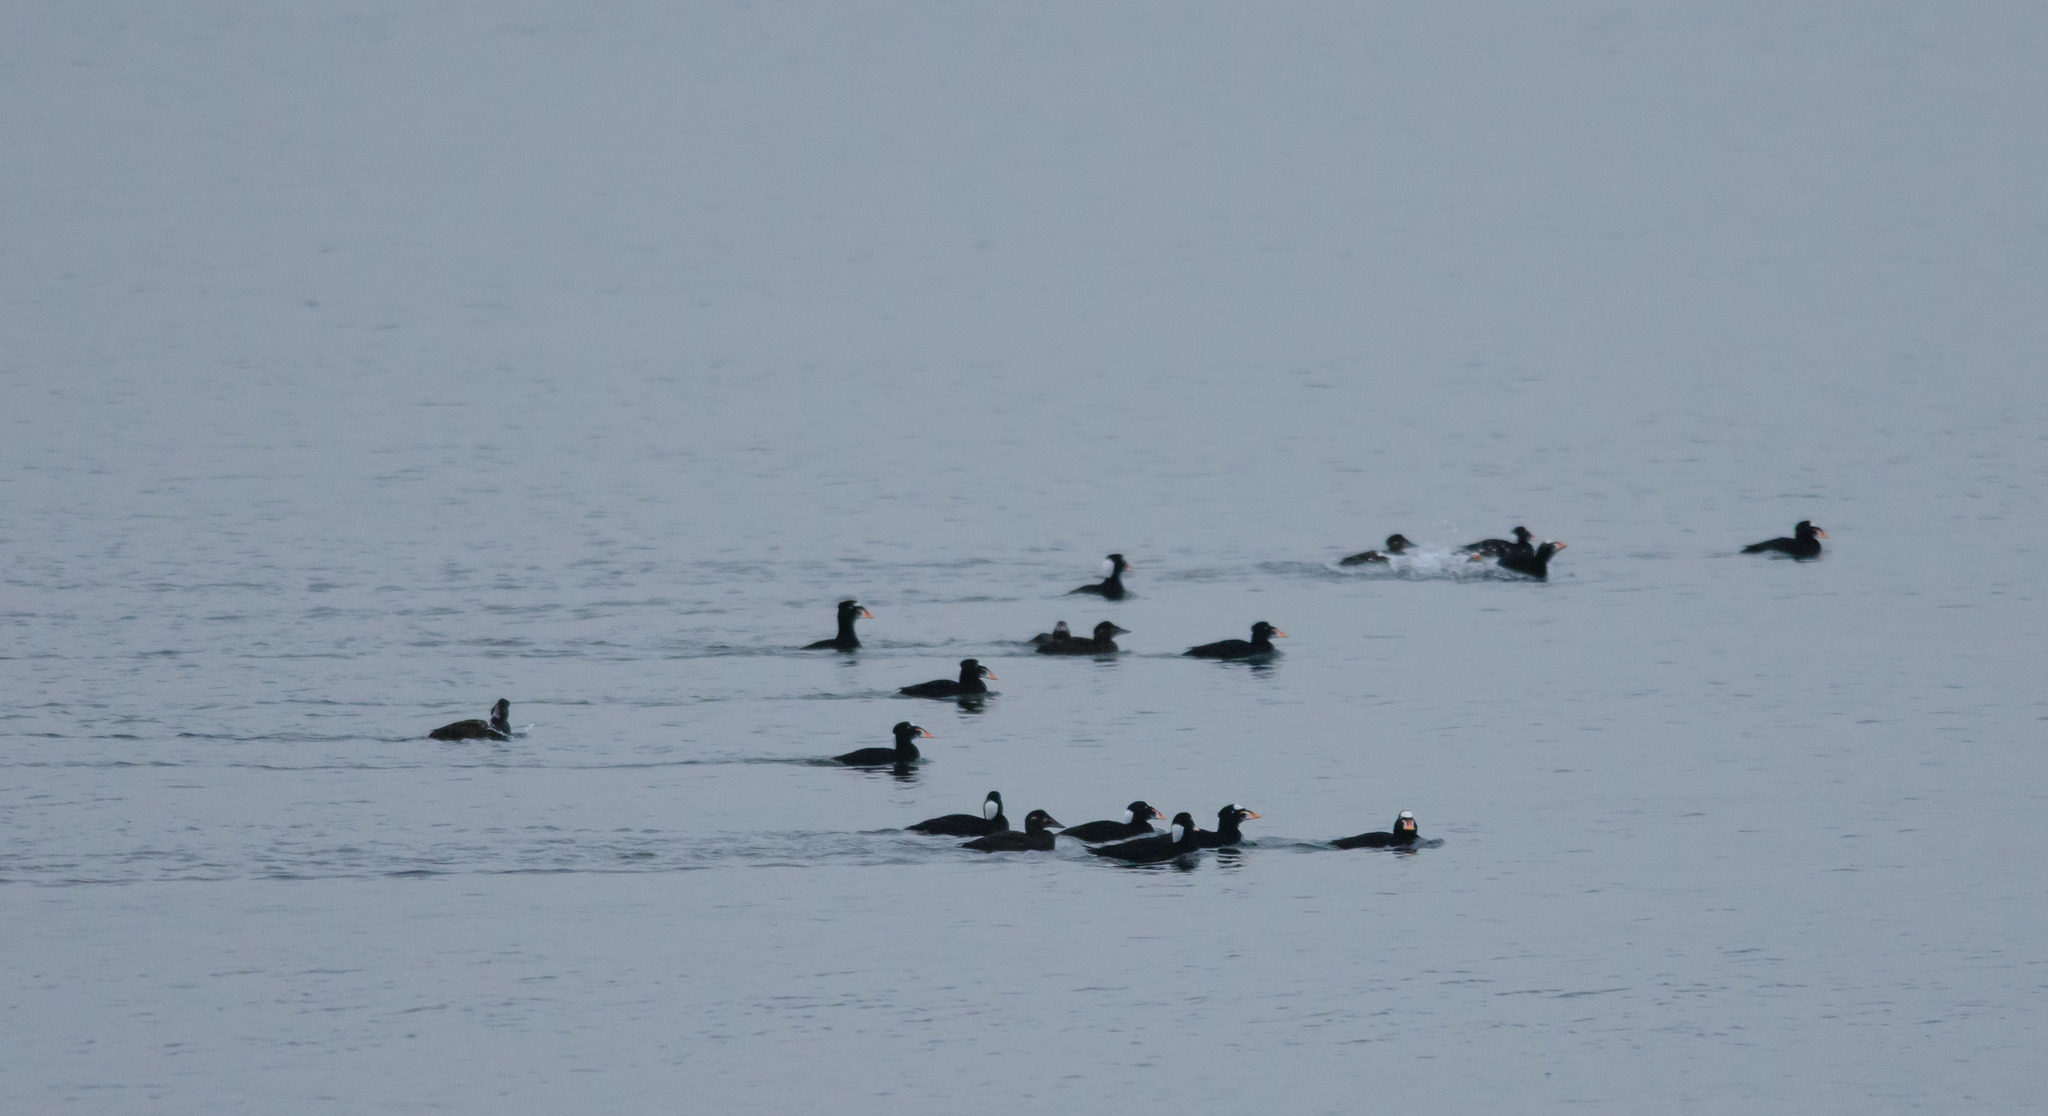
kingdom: Animalia
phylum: Chordata
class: Aves
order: Anseriformes
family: Anatidae
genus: Melanitta
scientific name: Melanitta perspicillata
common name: Surf scoter
